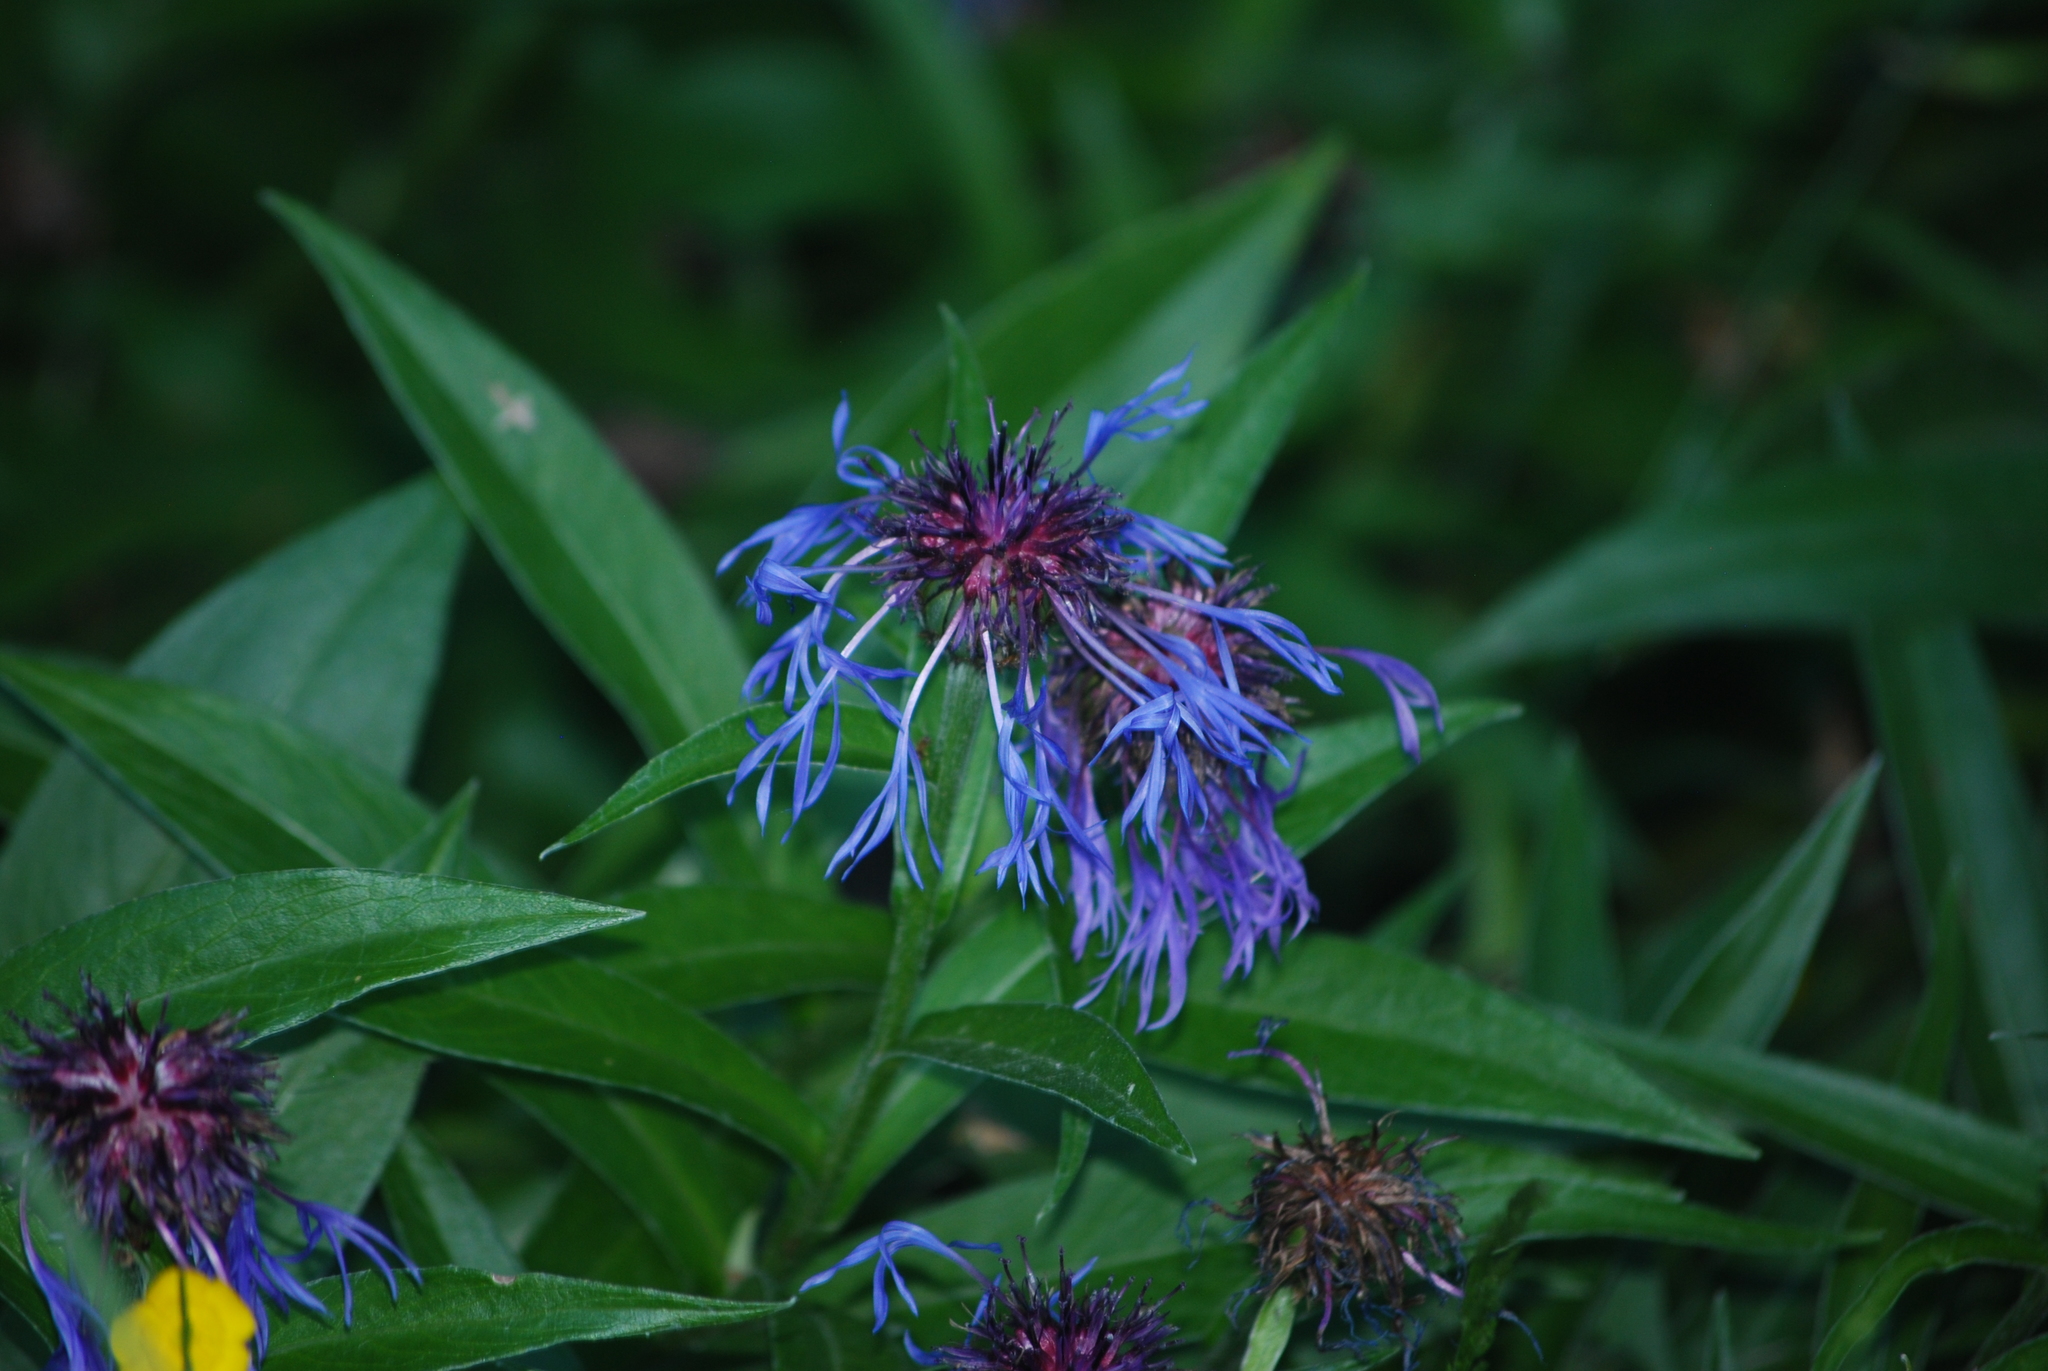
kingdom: Plantae
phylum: Tracheophyta
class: Magnoliopsida
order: Asterales
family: Asteraceae
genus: Centaurea
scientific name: Centaurea montana
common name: Perennial cornflower
